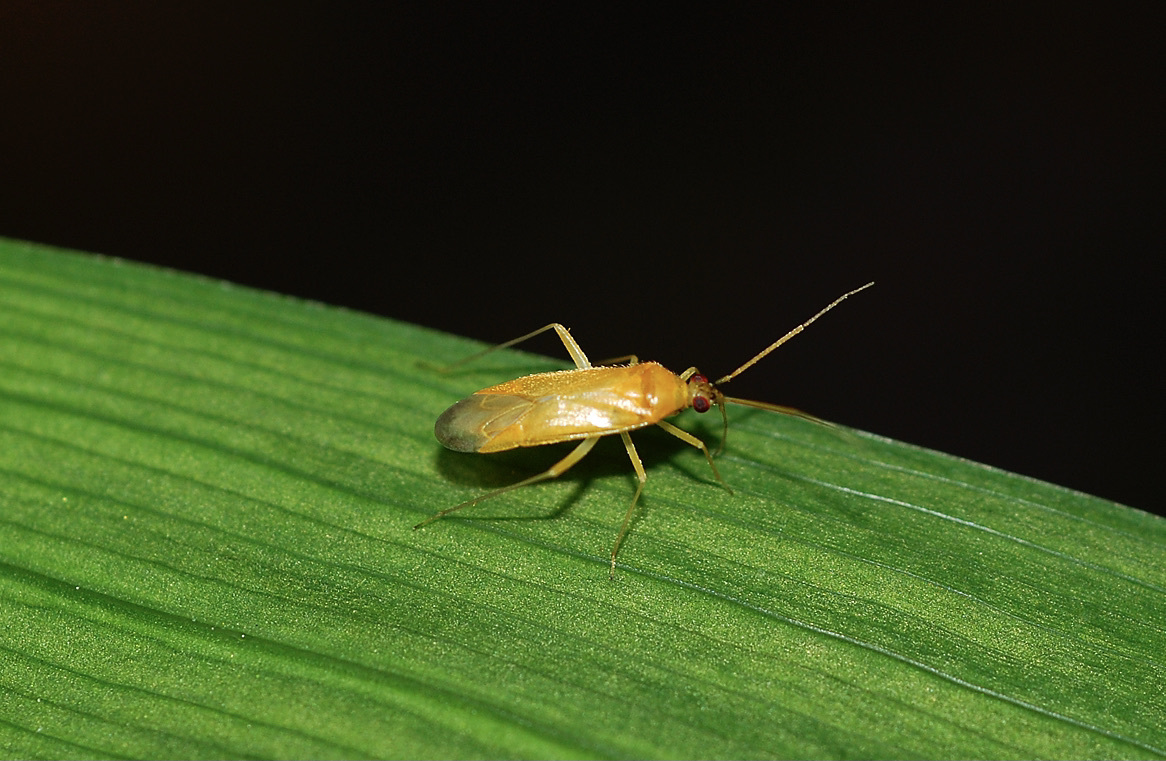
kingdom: Animalia
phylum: Arthropoda
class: Insecta
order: Hemiptera
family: Miridae
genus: Phylus
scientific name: Phylus melanocephalus
